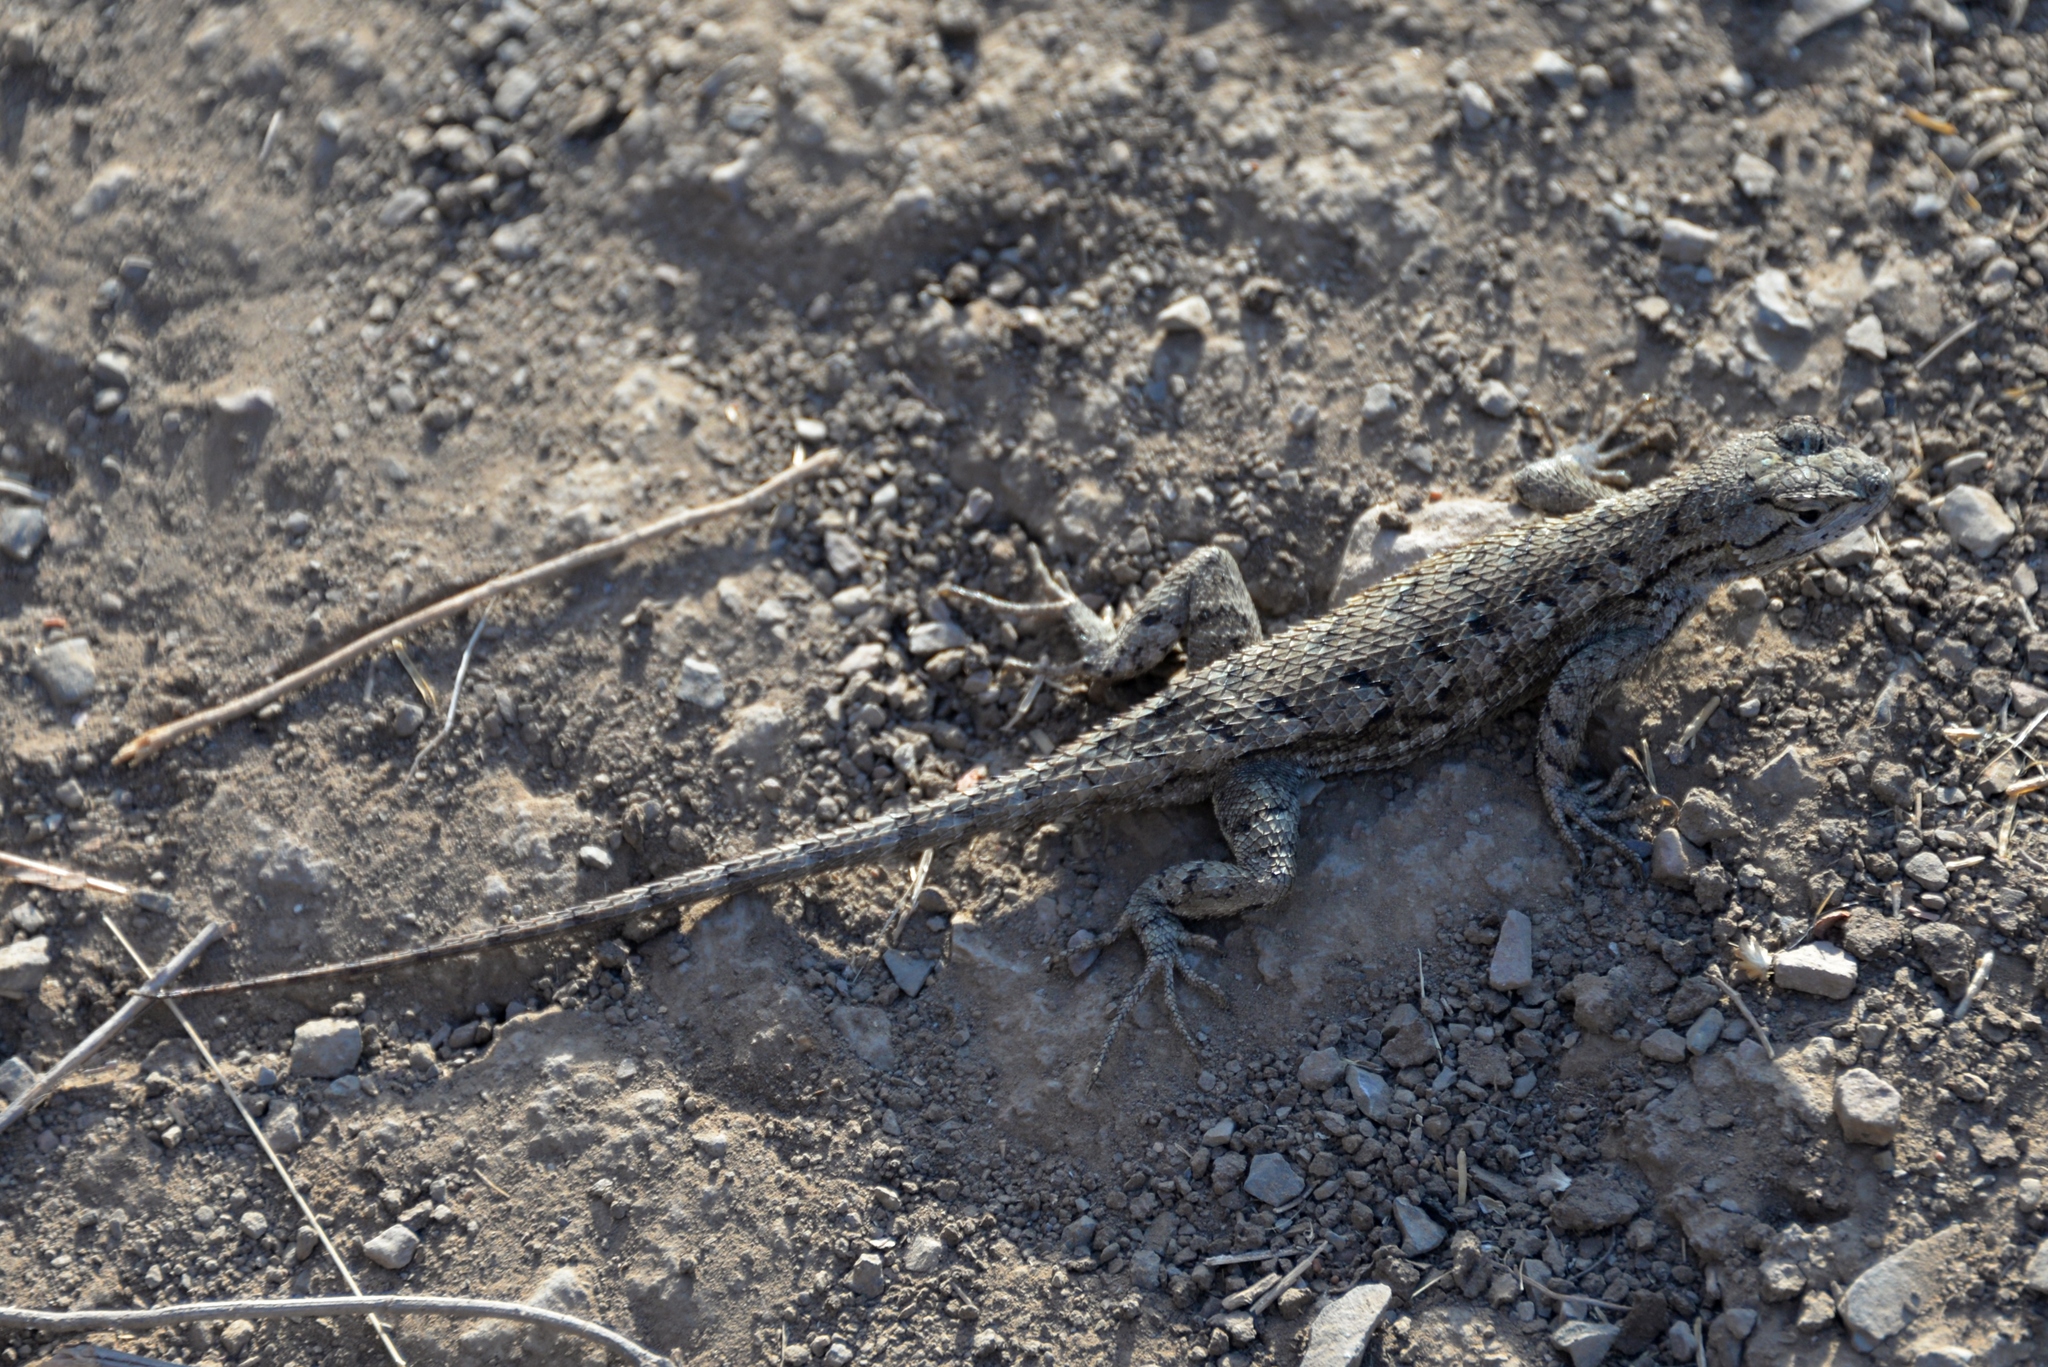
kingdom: Animalia
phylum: Chordata
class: Squamata
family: Phrynosomatidae
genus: Sceloporus
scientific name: Sceloporus occidentalis
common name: Western fence lizard
